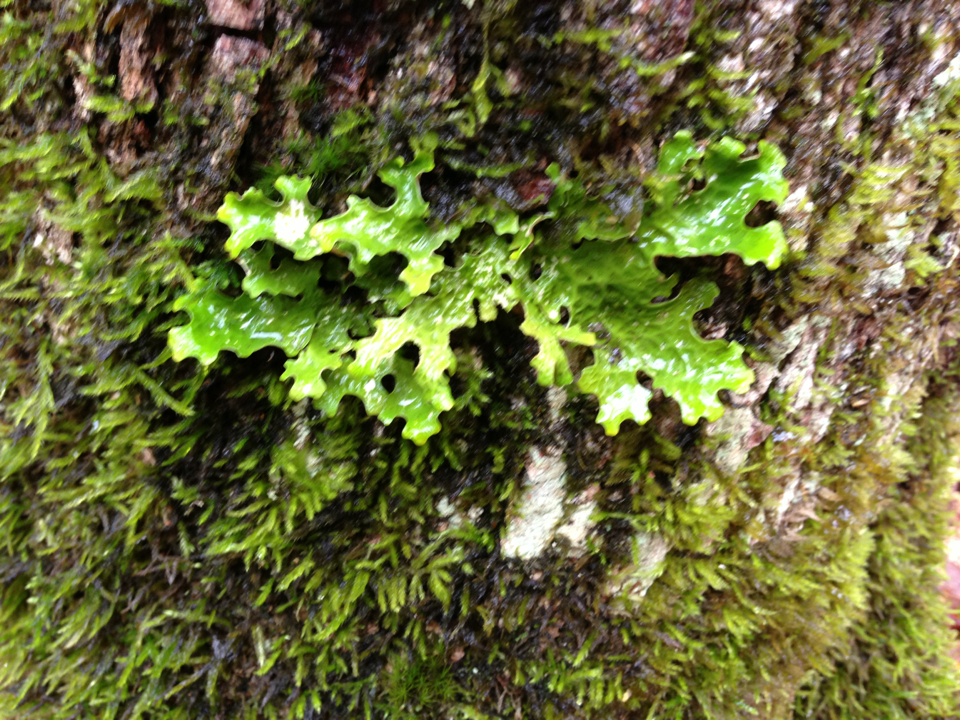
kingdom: Fungi
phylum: Ascomycota
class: Lecanoromycetes
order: Peltigerales
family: Lobariaceae
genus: Lobaria
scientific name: Lobaria pulmonaria
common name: Lungwort
